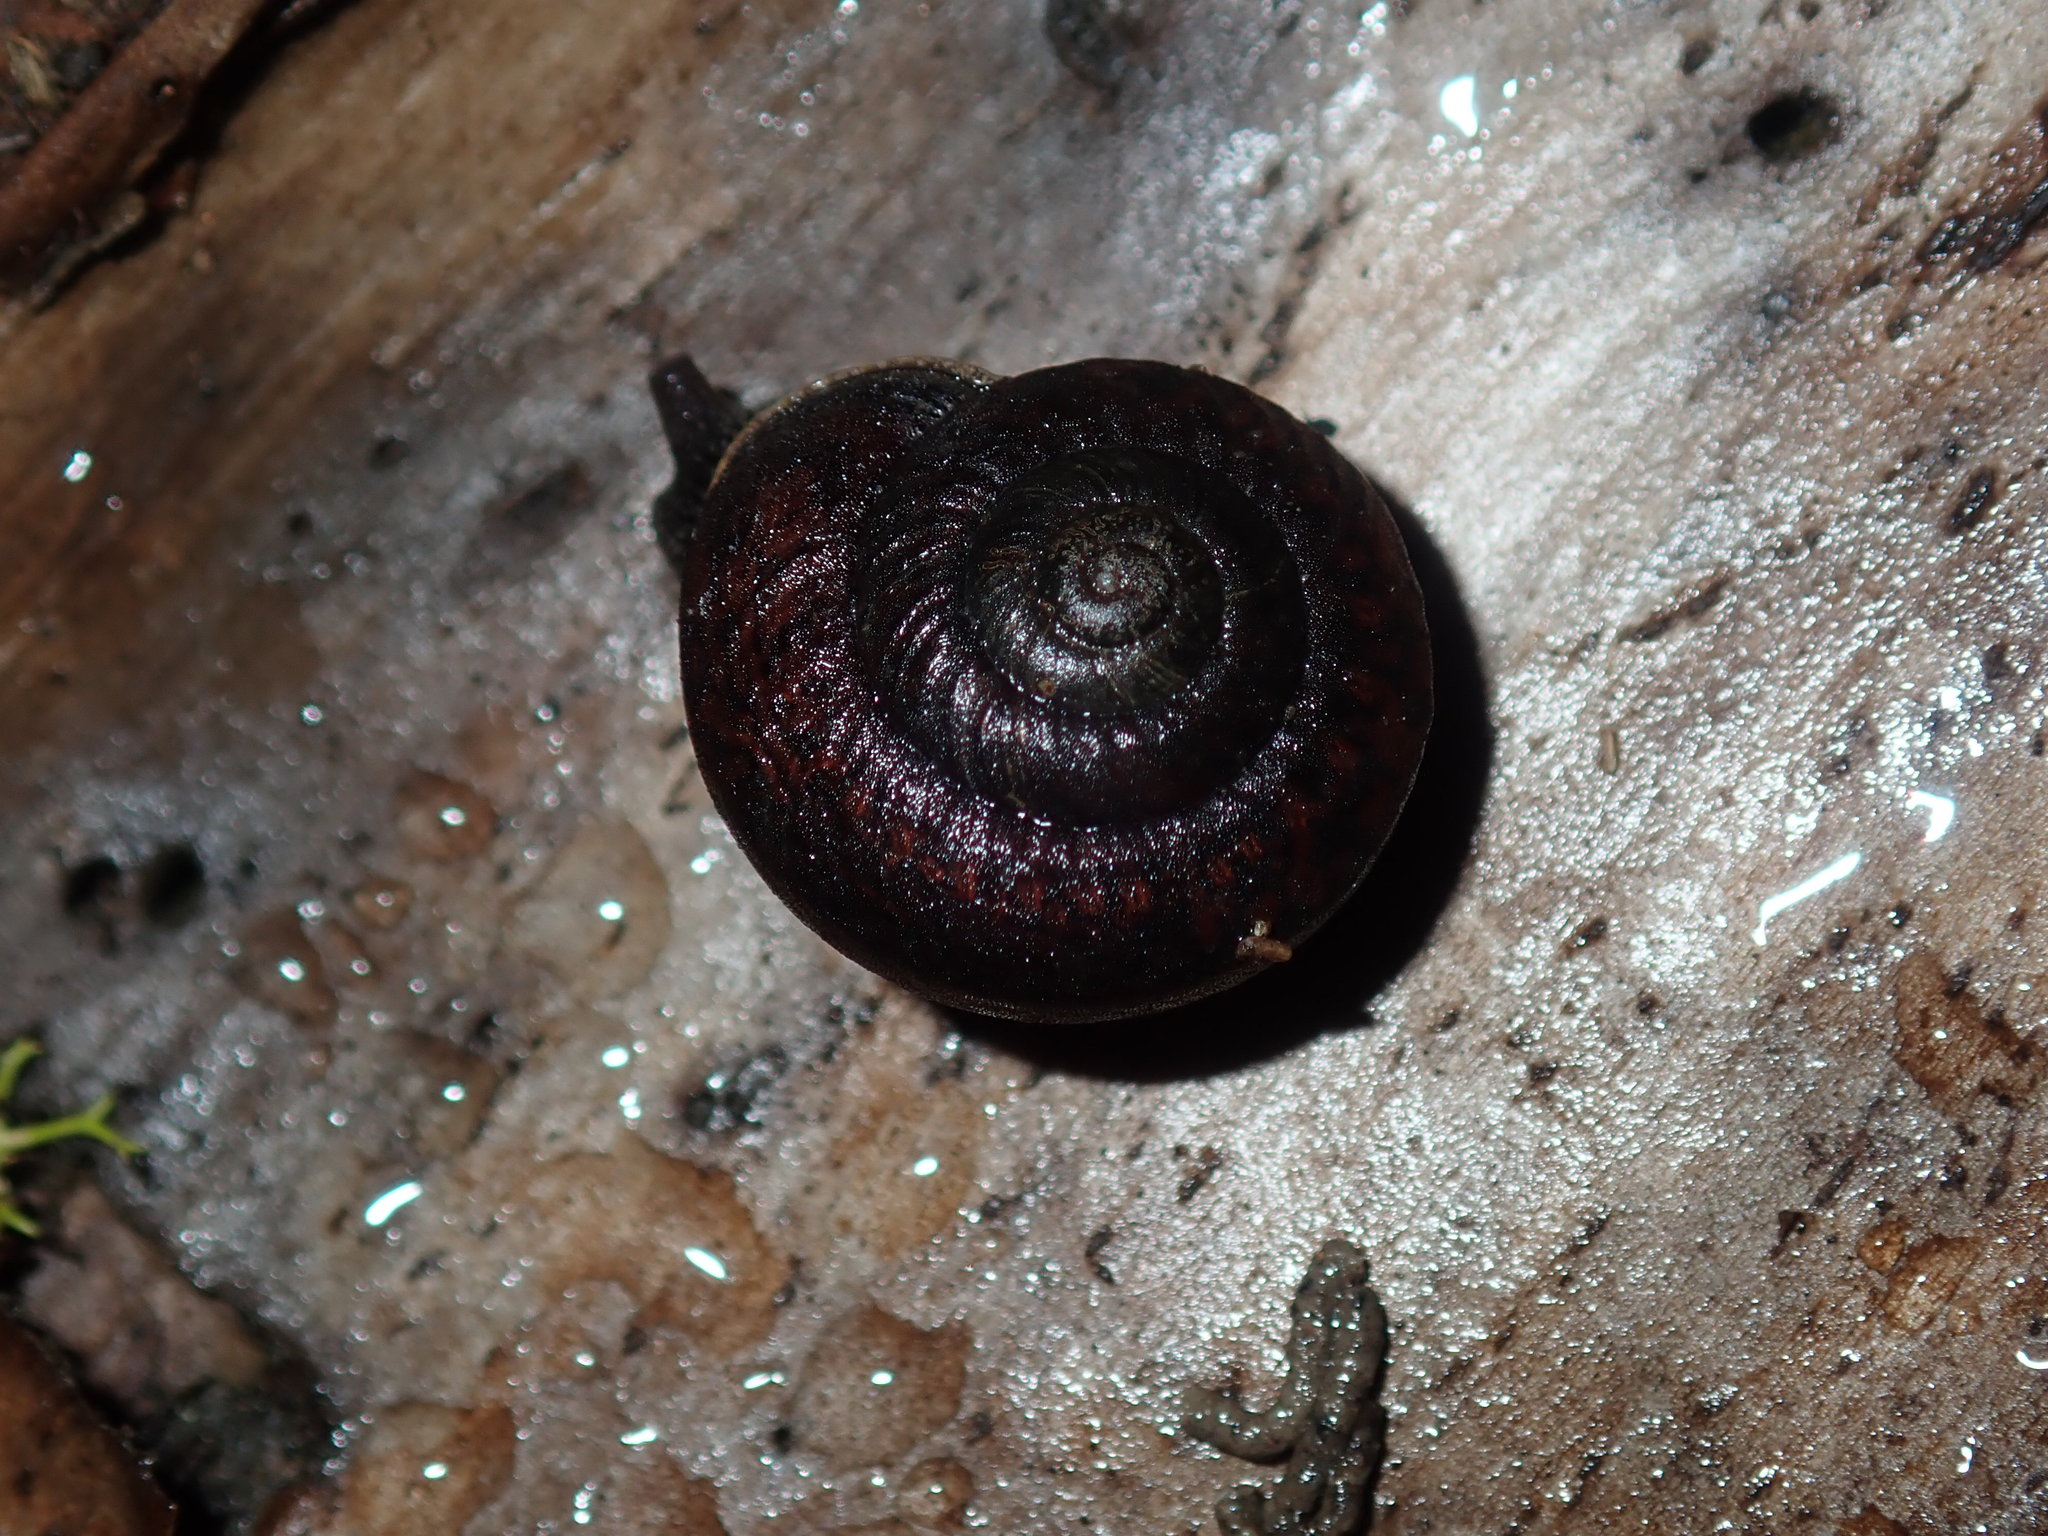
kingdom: Animalia
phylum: Mollusca
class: Gastropoda
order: Stylommatophora
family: Camaenidae
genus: Sauroconcha
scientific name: Sauroconcha sheai
